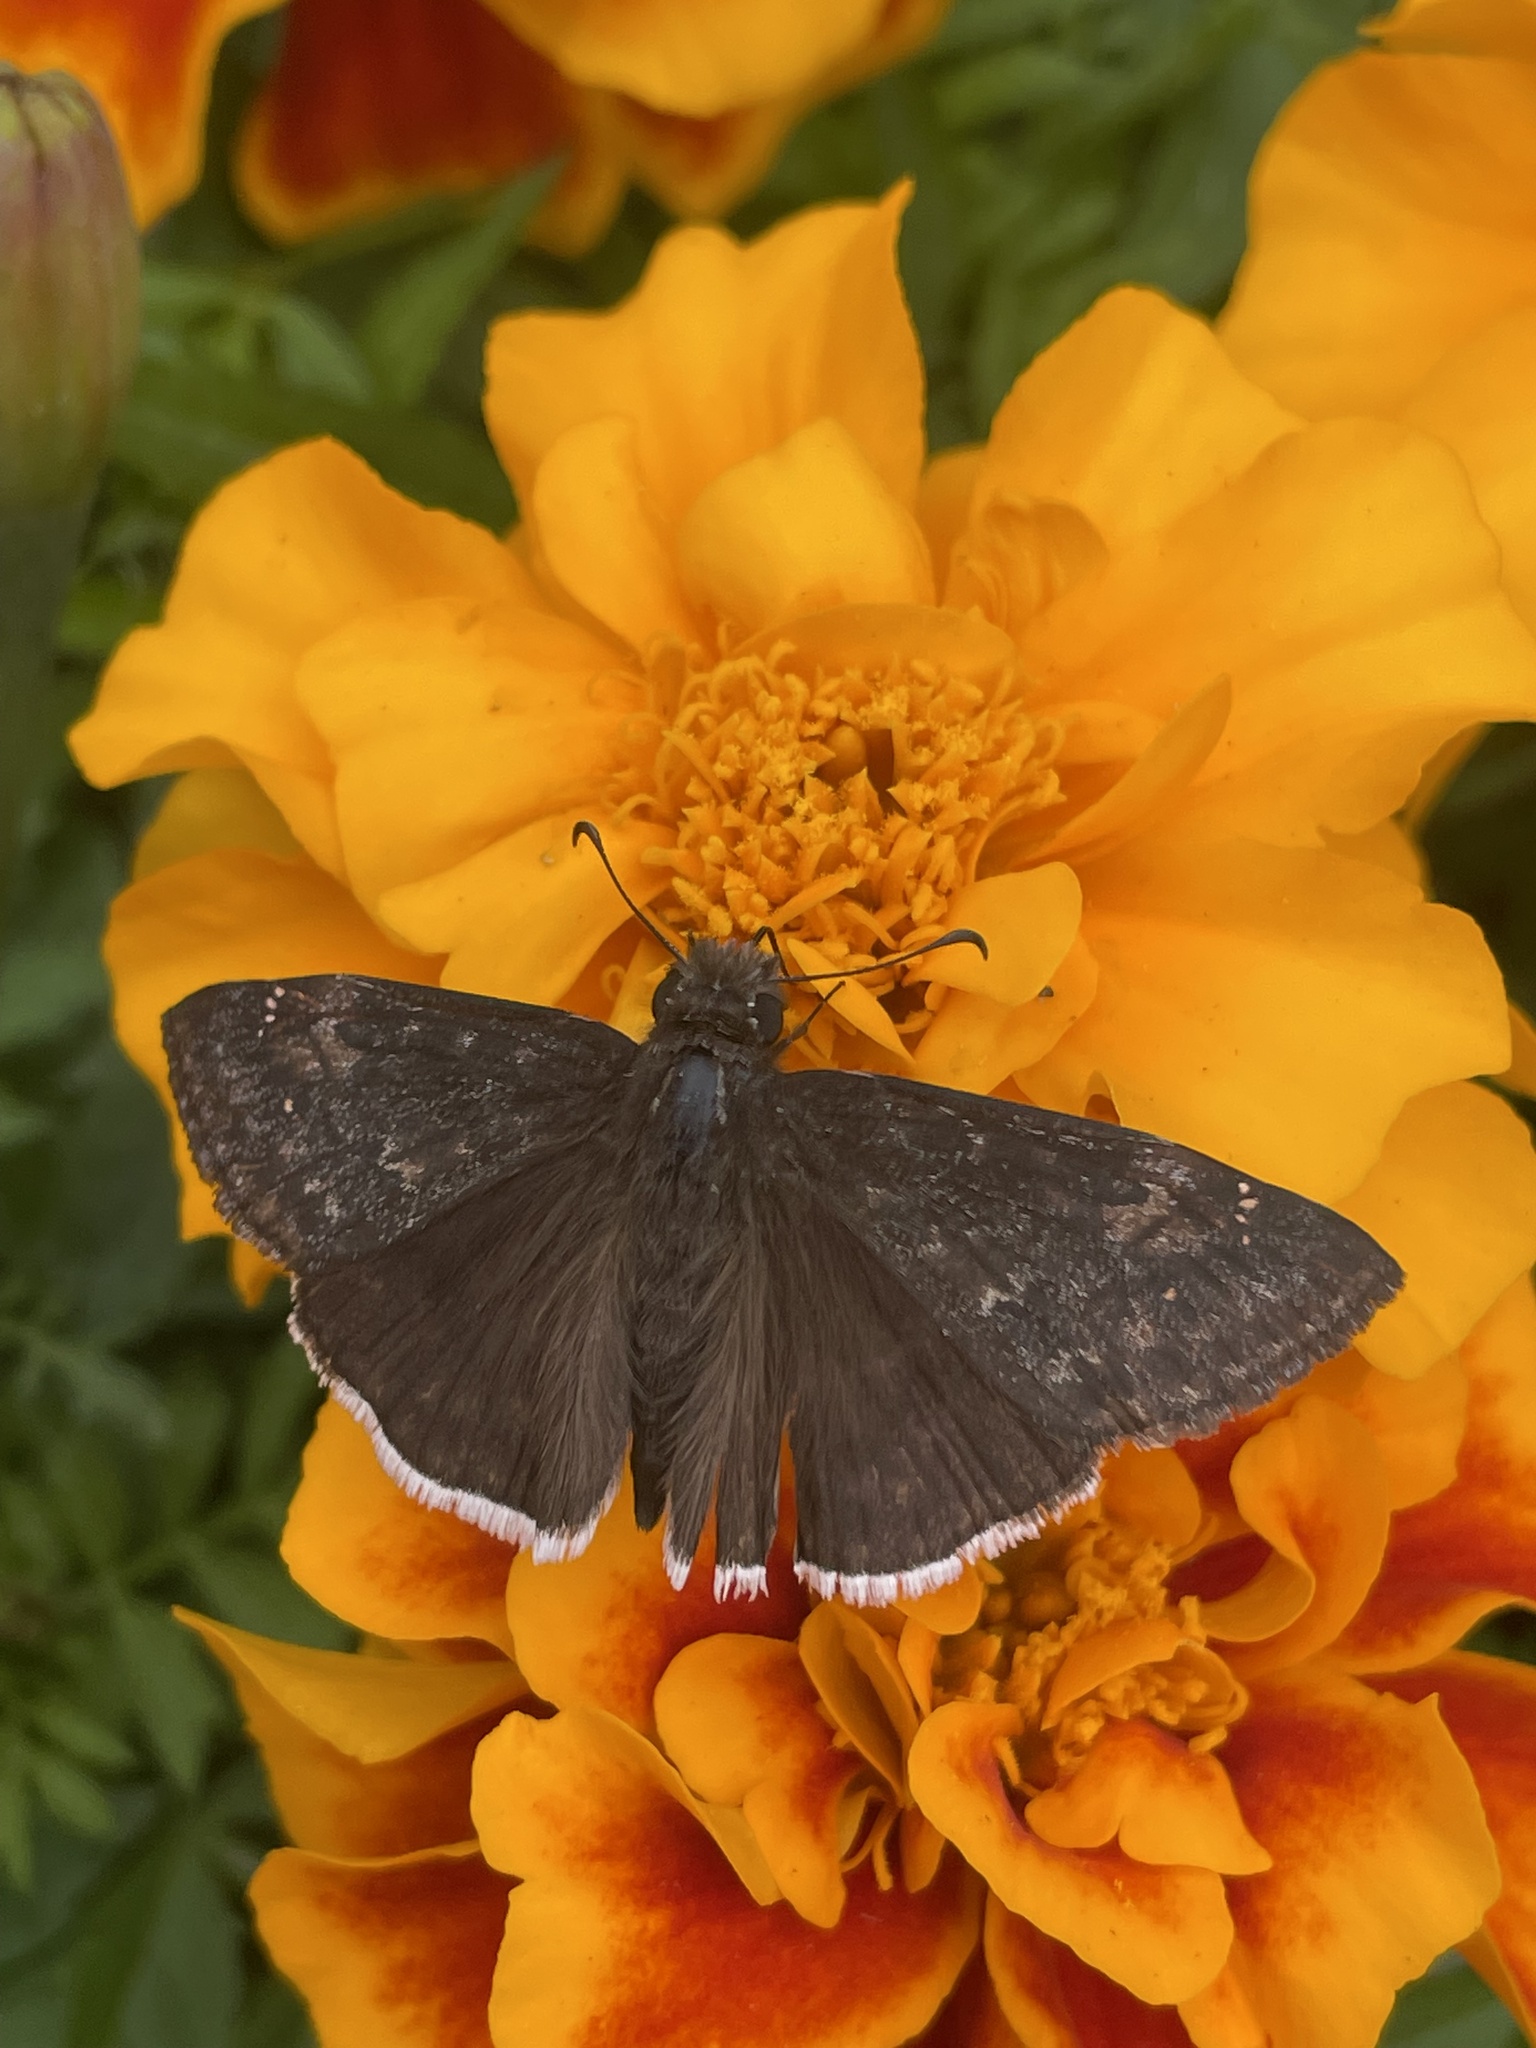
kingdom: Animalia
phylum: Arthropoda
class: Insecta
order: Lepidoptera
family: Hesperiidae
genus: Erynnis
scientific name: Erynnis funeralis
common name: Funereal duskywing
